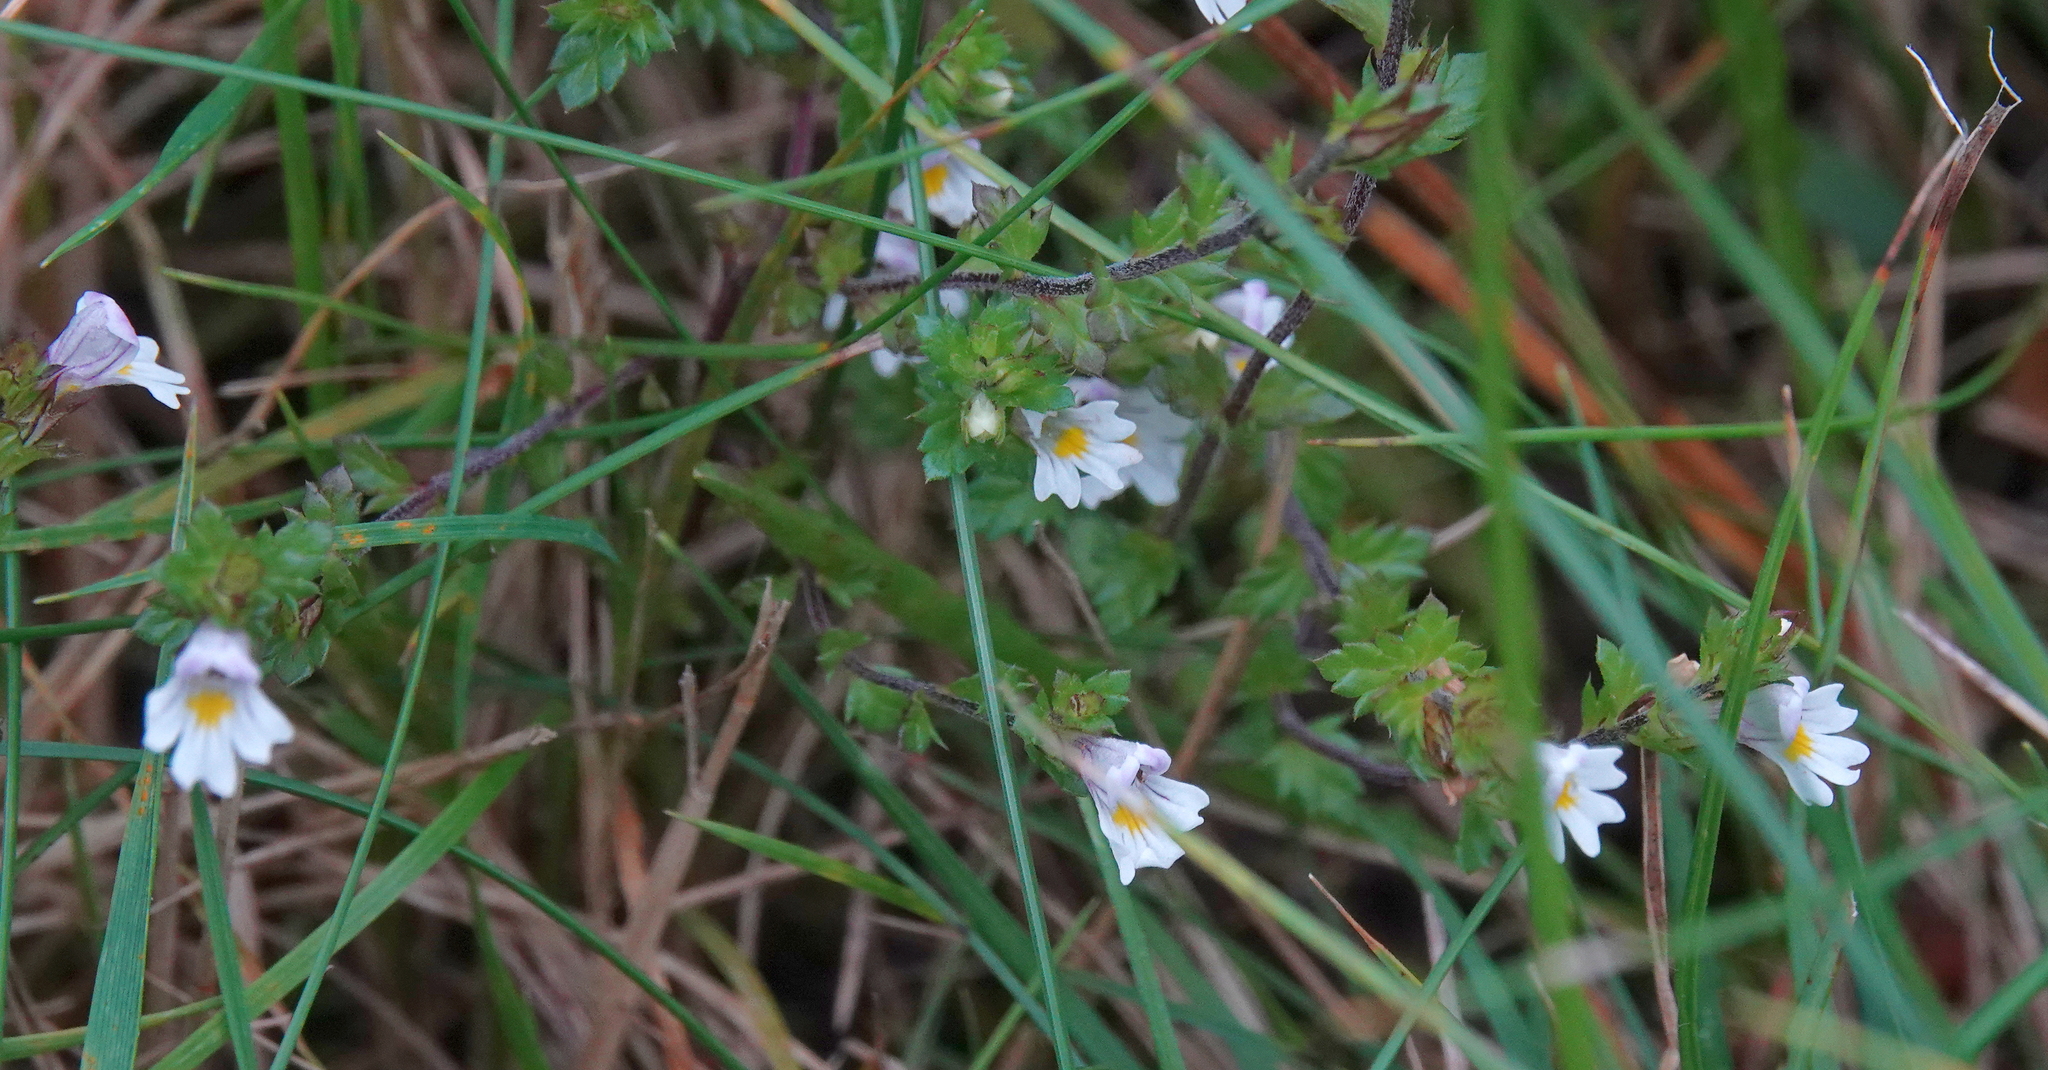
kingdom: Plantae
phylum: Tracheophyta
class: Magnoliopsida
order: Lamiales
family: Orobanchaceae
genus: Euphrasia
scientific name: Euphrasia nemorosa
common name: Common eyebright
